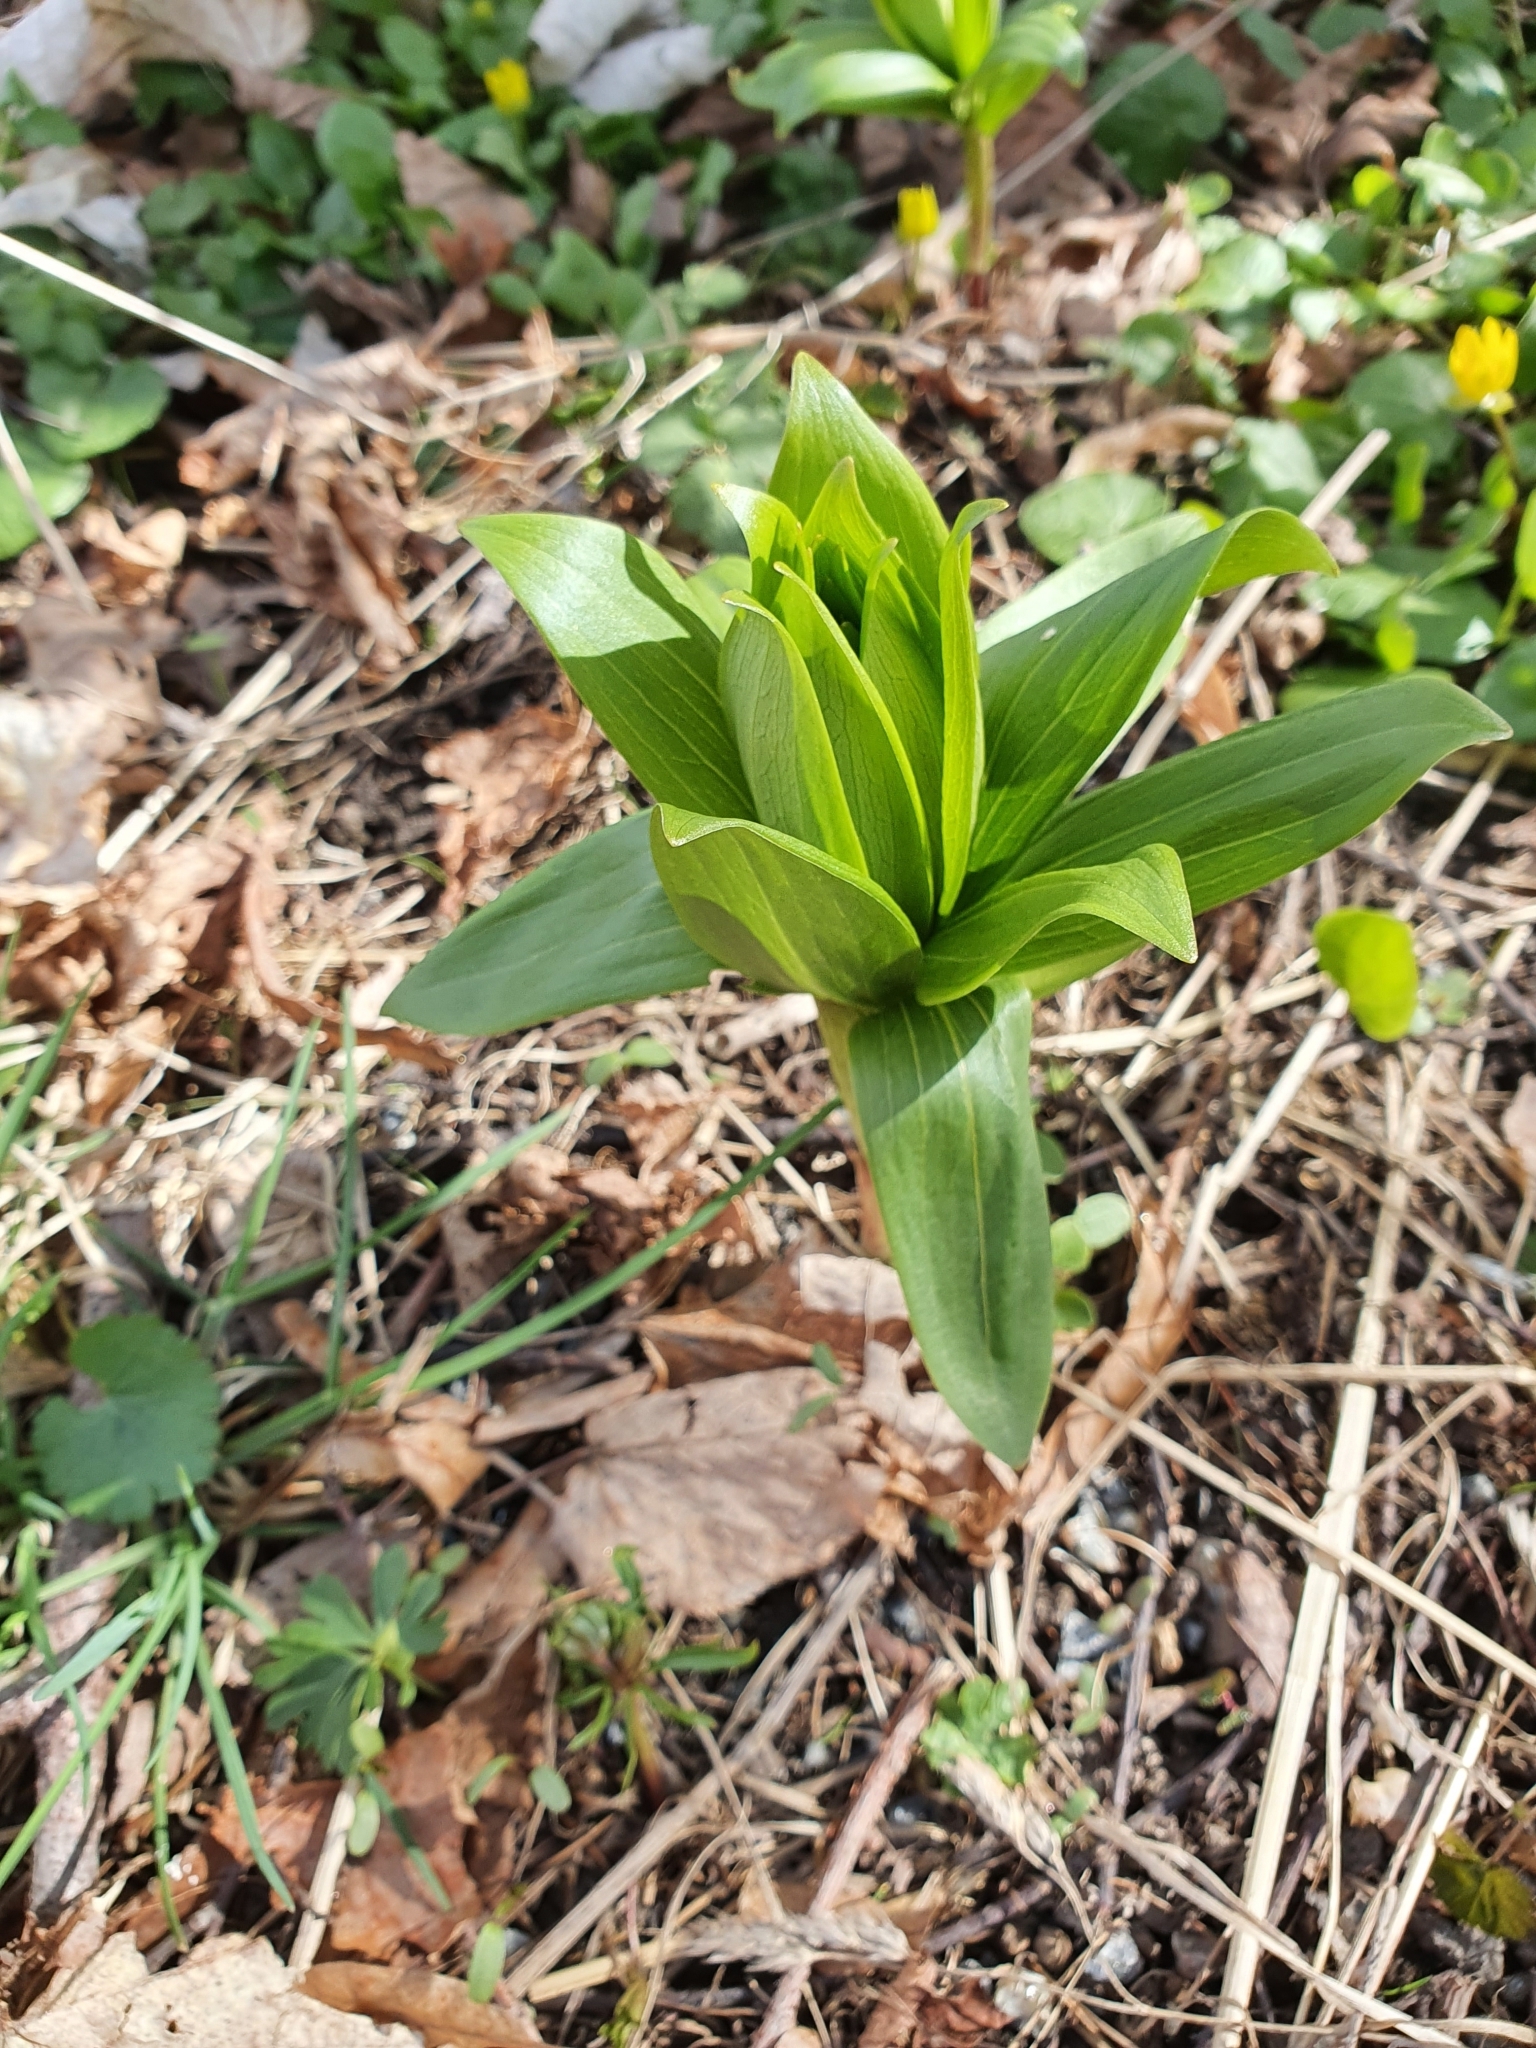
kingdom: Plantae
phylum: Tracheophyta
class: Liliopsida
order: Liliales
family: Liliaceae
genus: Lilium
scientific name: Lilium martagon
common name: Martagon lily
